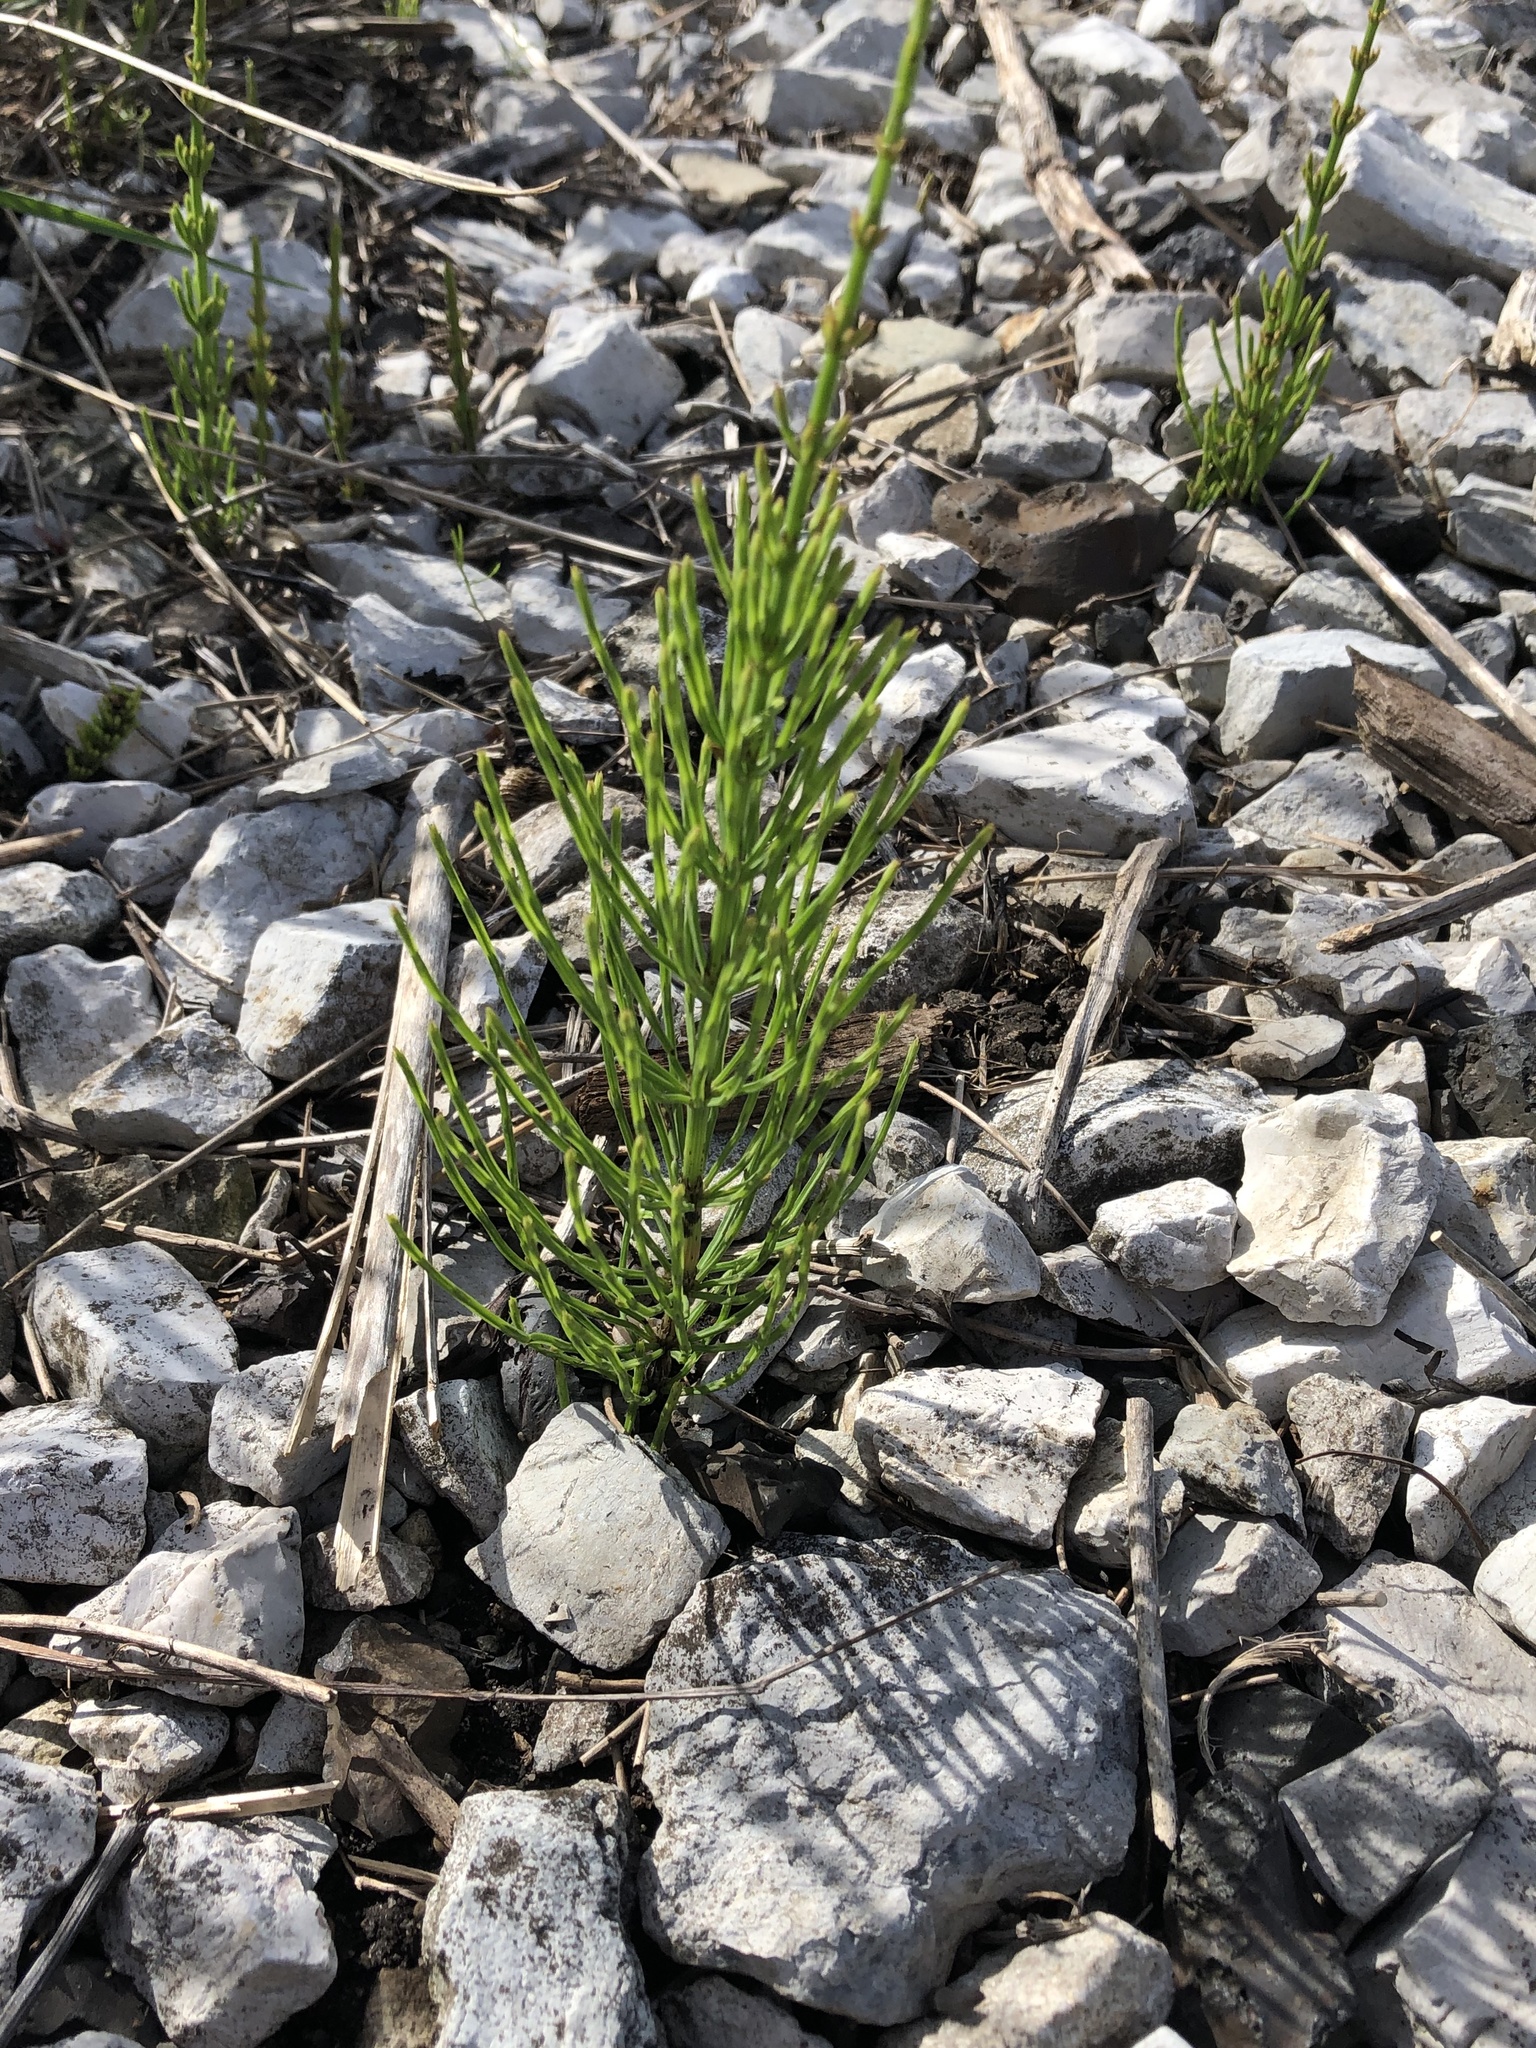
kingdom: Plantae
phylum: Tracheophyta
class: Polypodiopsida
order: Equisetales
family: Equisetaceae
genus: Equisetum
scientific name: Equisetum arvense
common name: Field horsetail
